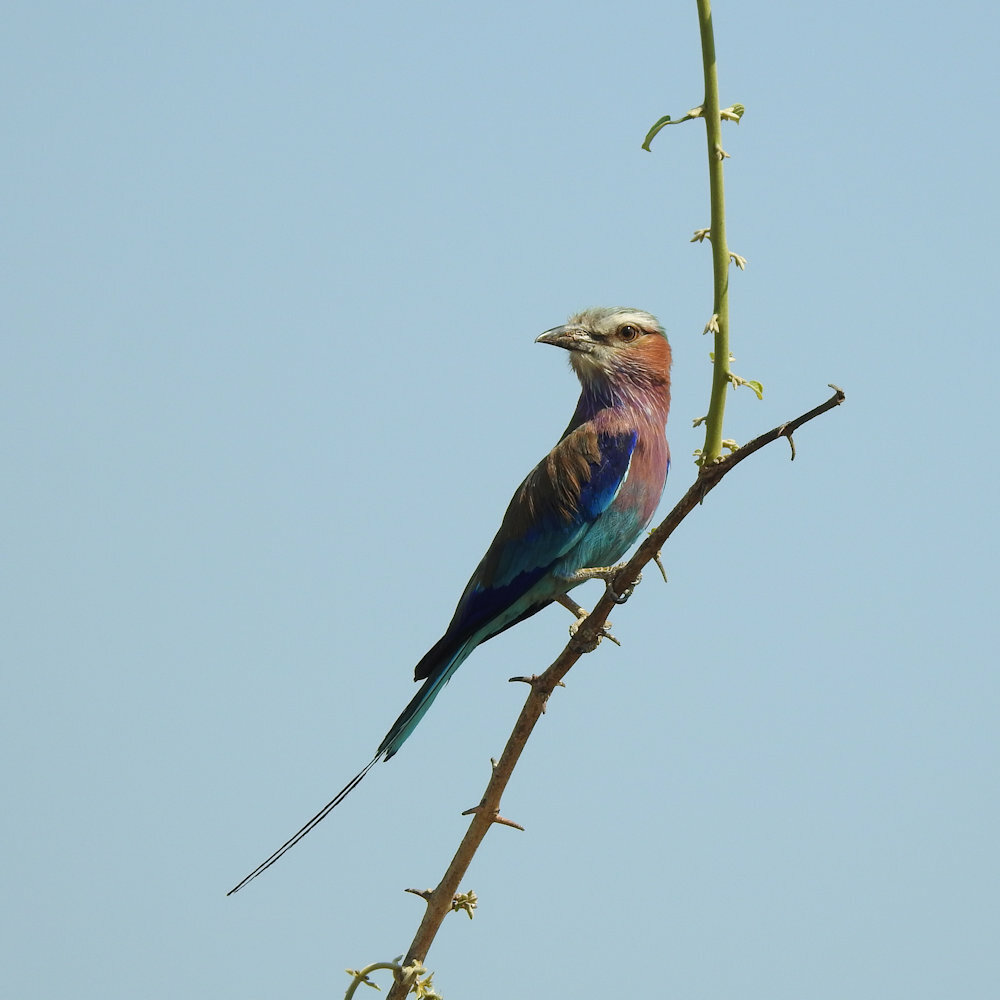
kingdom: Animalia
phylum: Chordata
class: Aves
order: Coraciiformes
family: Coraciidae
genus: Coracias
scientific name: Coracias caudatus
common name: Lilac-breasted roller
